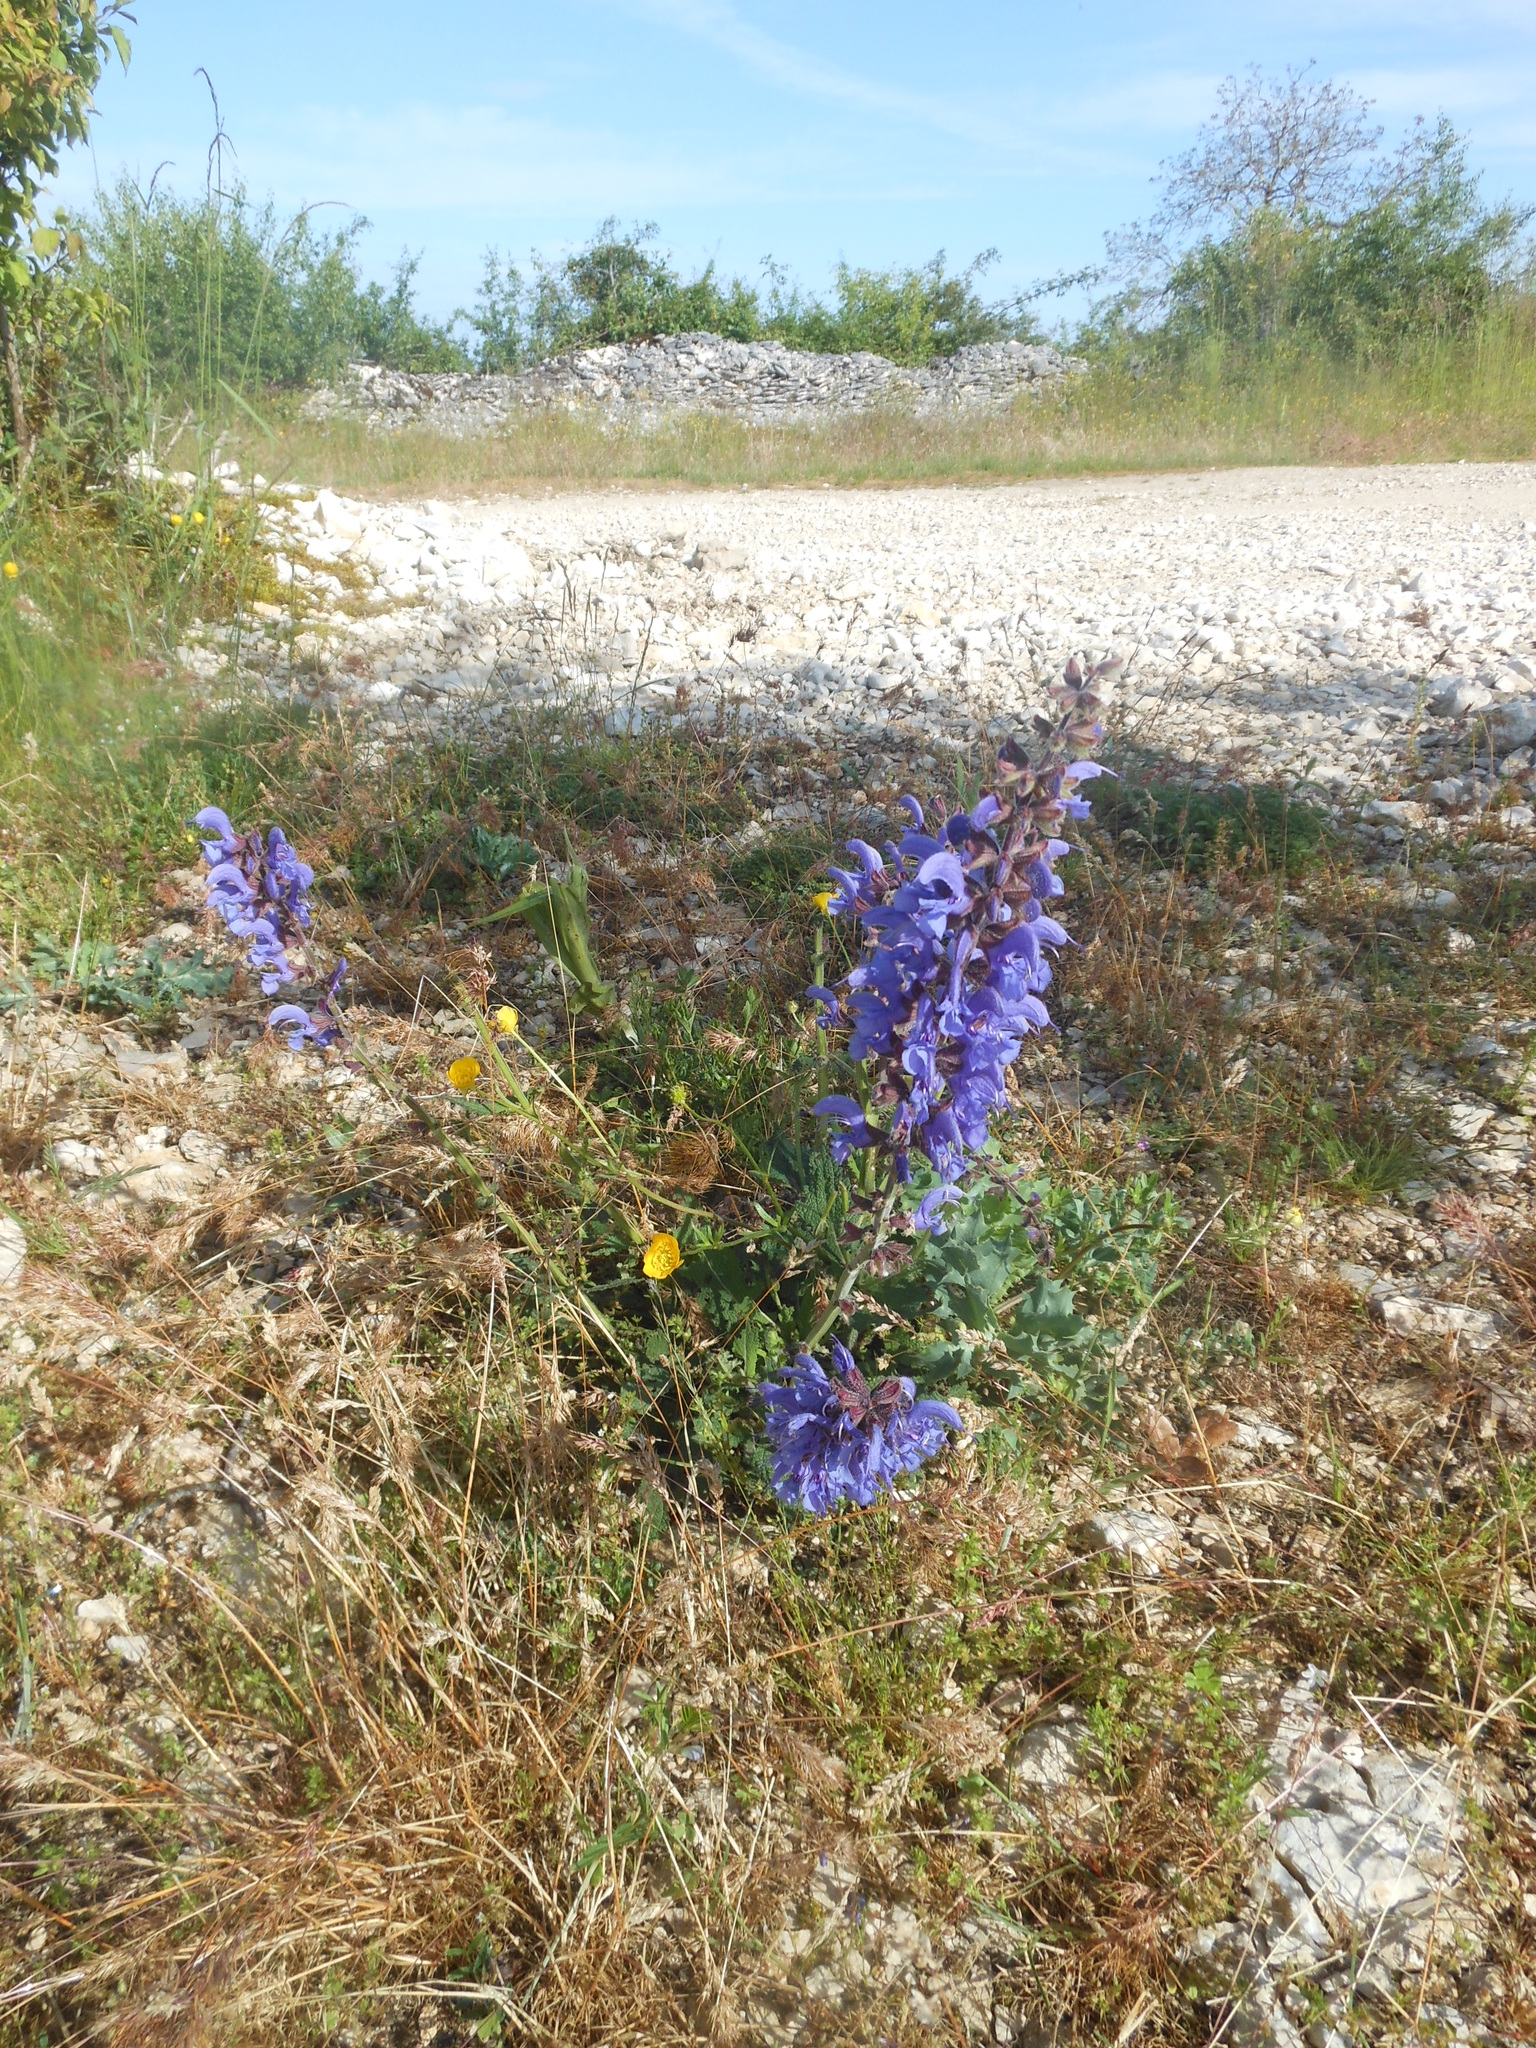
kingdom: Plantae
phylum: Tracheophyta
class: Magnoliopsida
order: Lamiales
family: Lamiaceae
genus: Salvia
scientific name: Salvia pratensis
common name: Meadow sage
